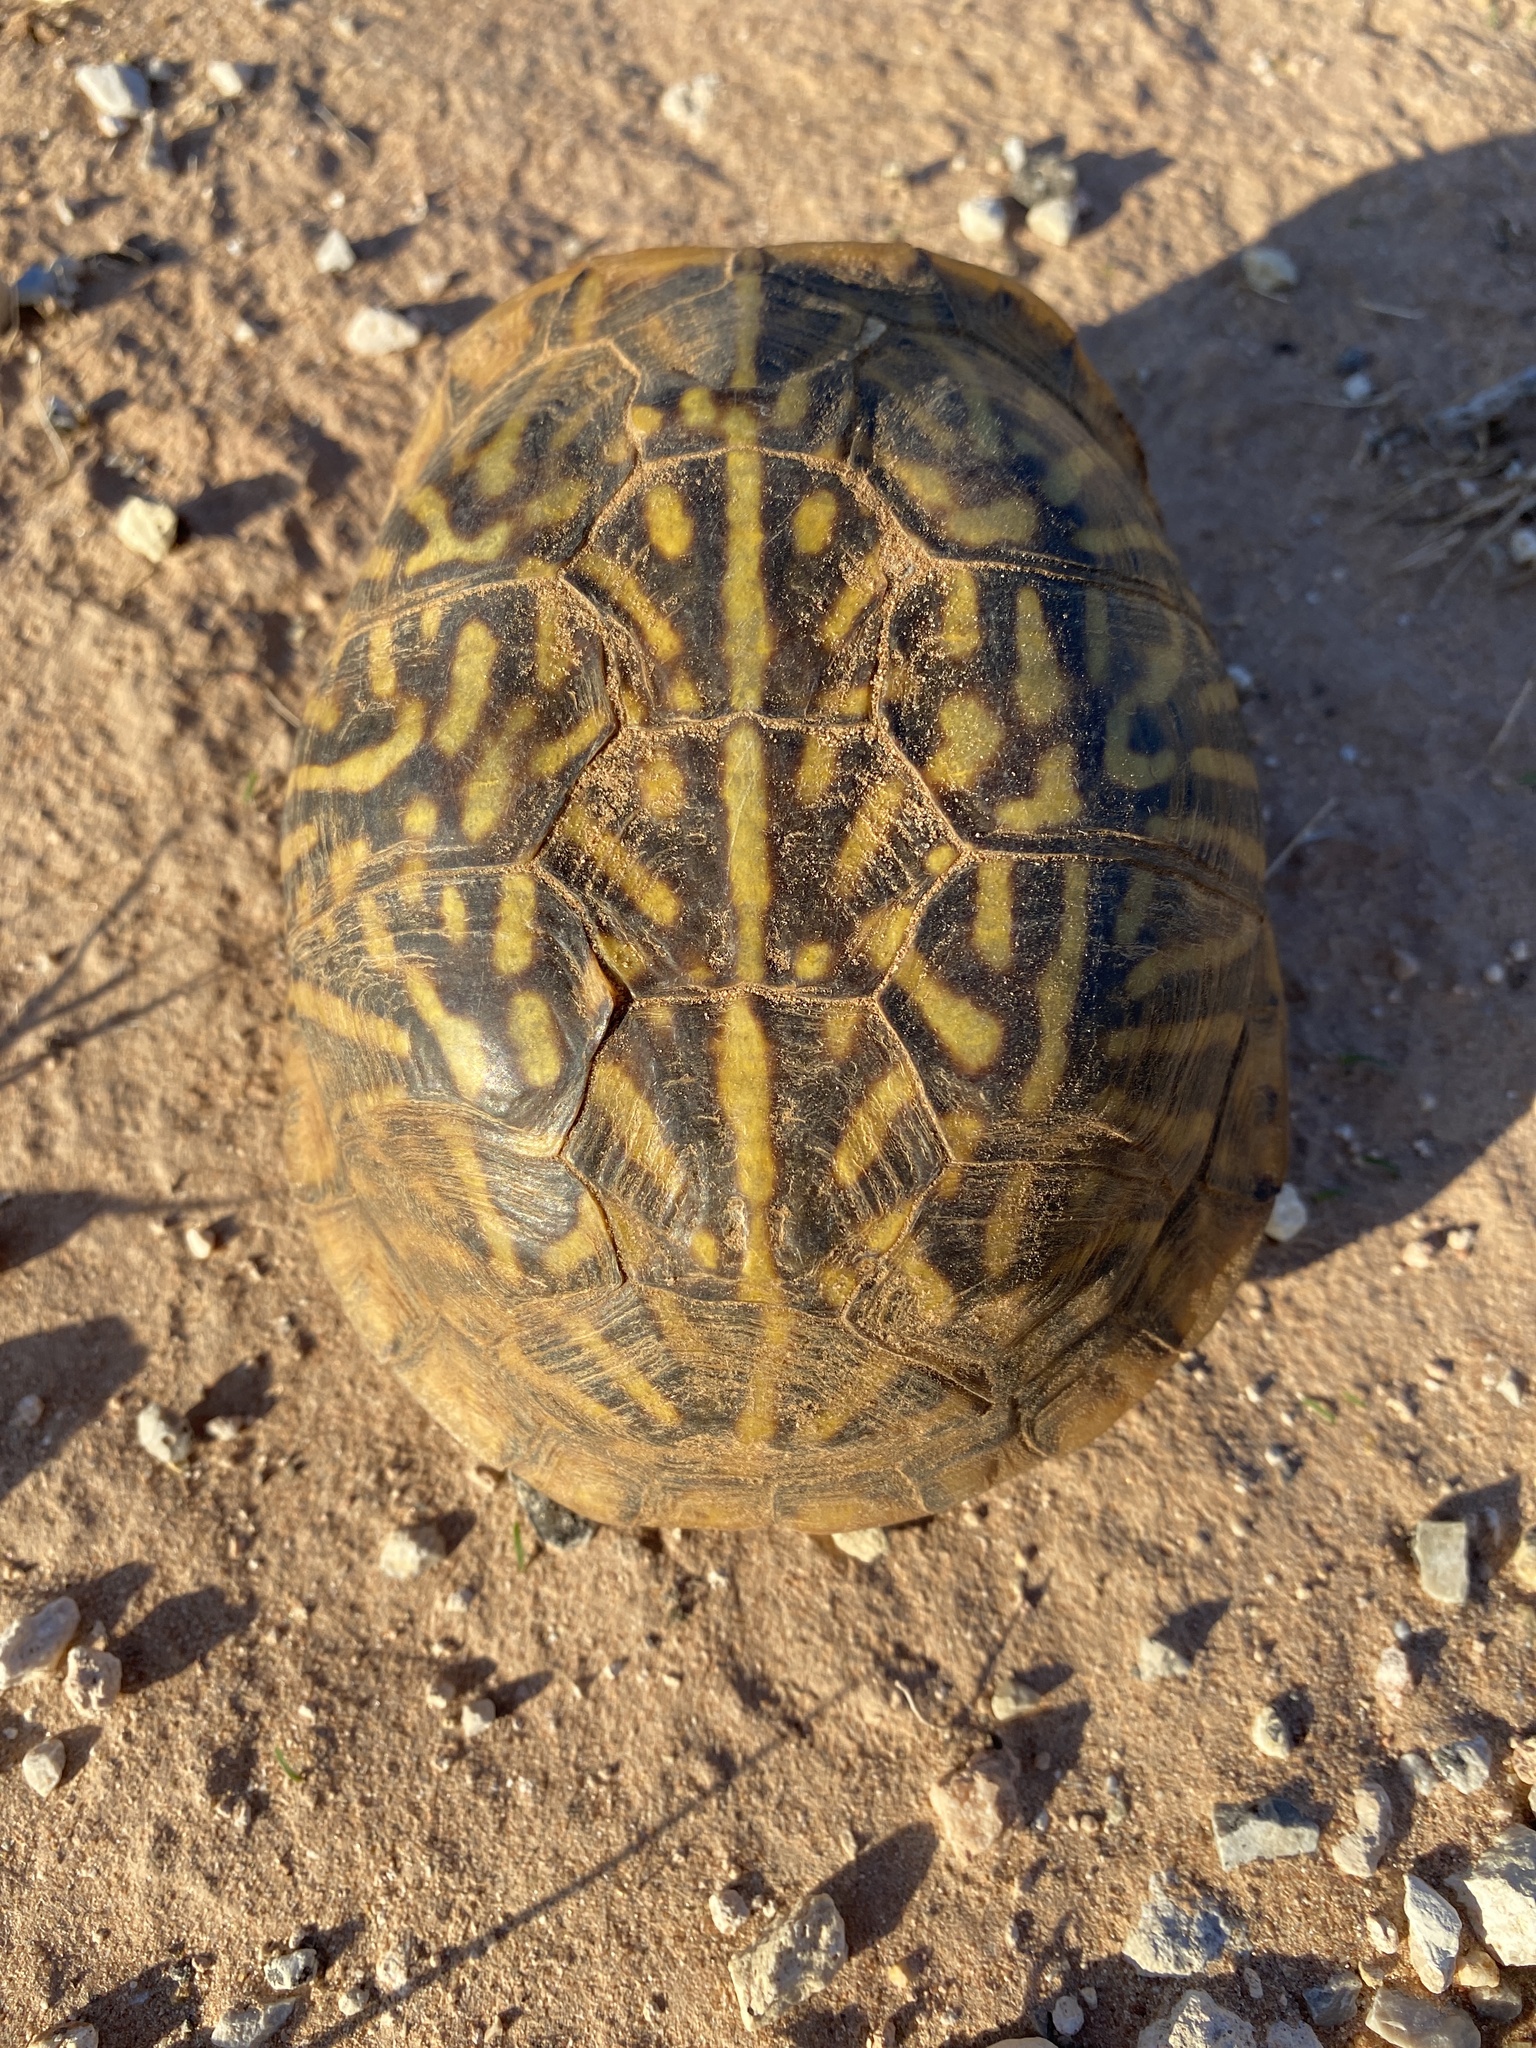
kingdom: Animalia
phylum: Chordata
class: Testudines
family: Emydidae
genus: Terrapene
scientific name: Terrapene ornata
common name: Western box turtle
